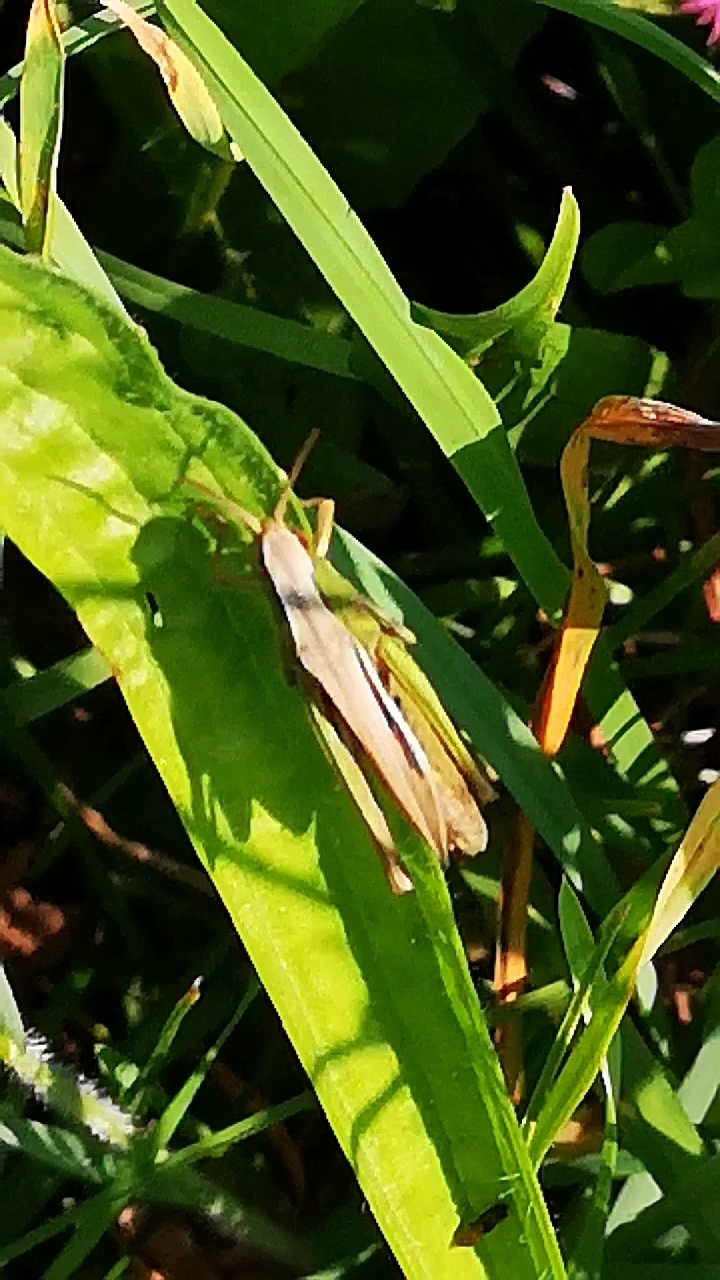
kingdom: Animalia
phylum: Arthropoda
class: Insecta
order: Orthoptera
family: Acrididae
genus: Chorthippus
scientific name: Chorthippus dorsatus
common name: Steppe grasshopper
